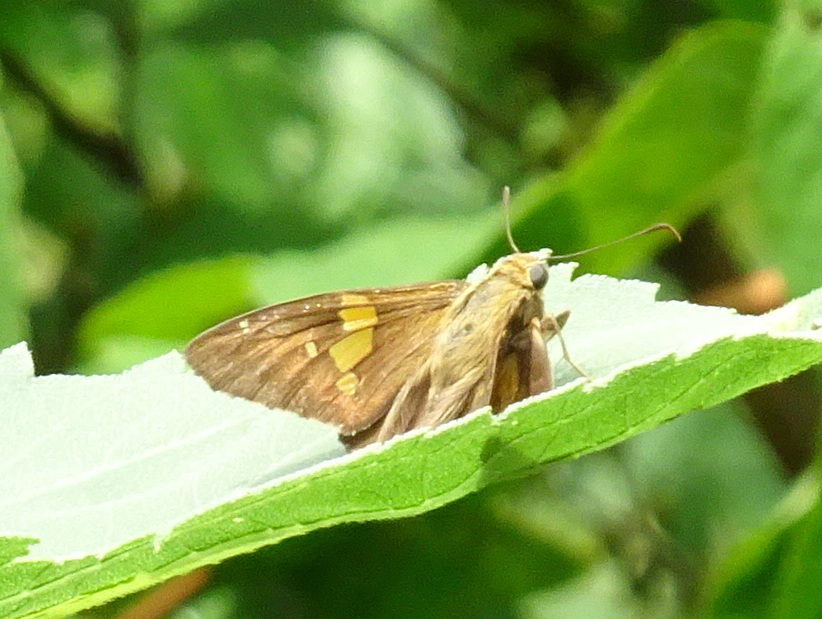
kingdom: Animalia
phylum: Arthropoda
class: Insecta
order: Lepidoptera
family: Hesperiidae
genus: Epargyreus
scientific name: Epargyreus clarus
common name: Silver-spotted skipper
